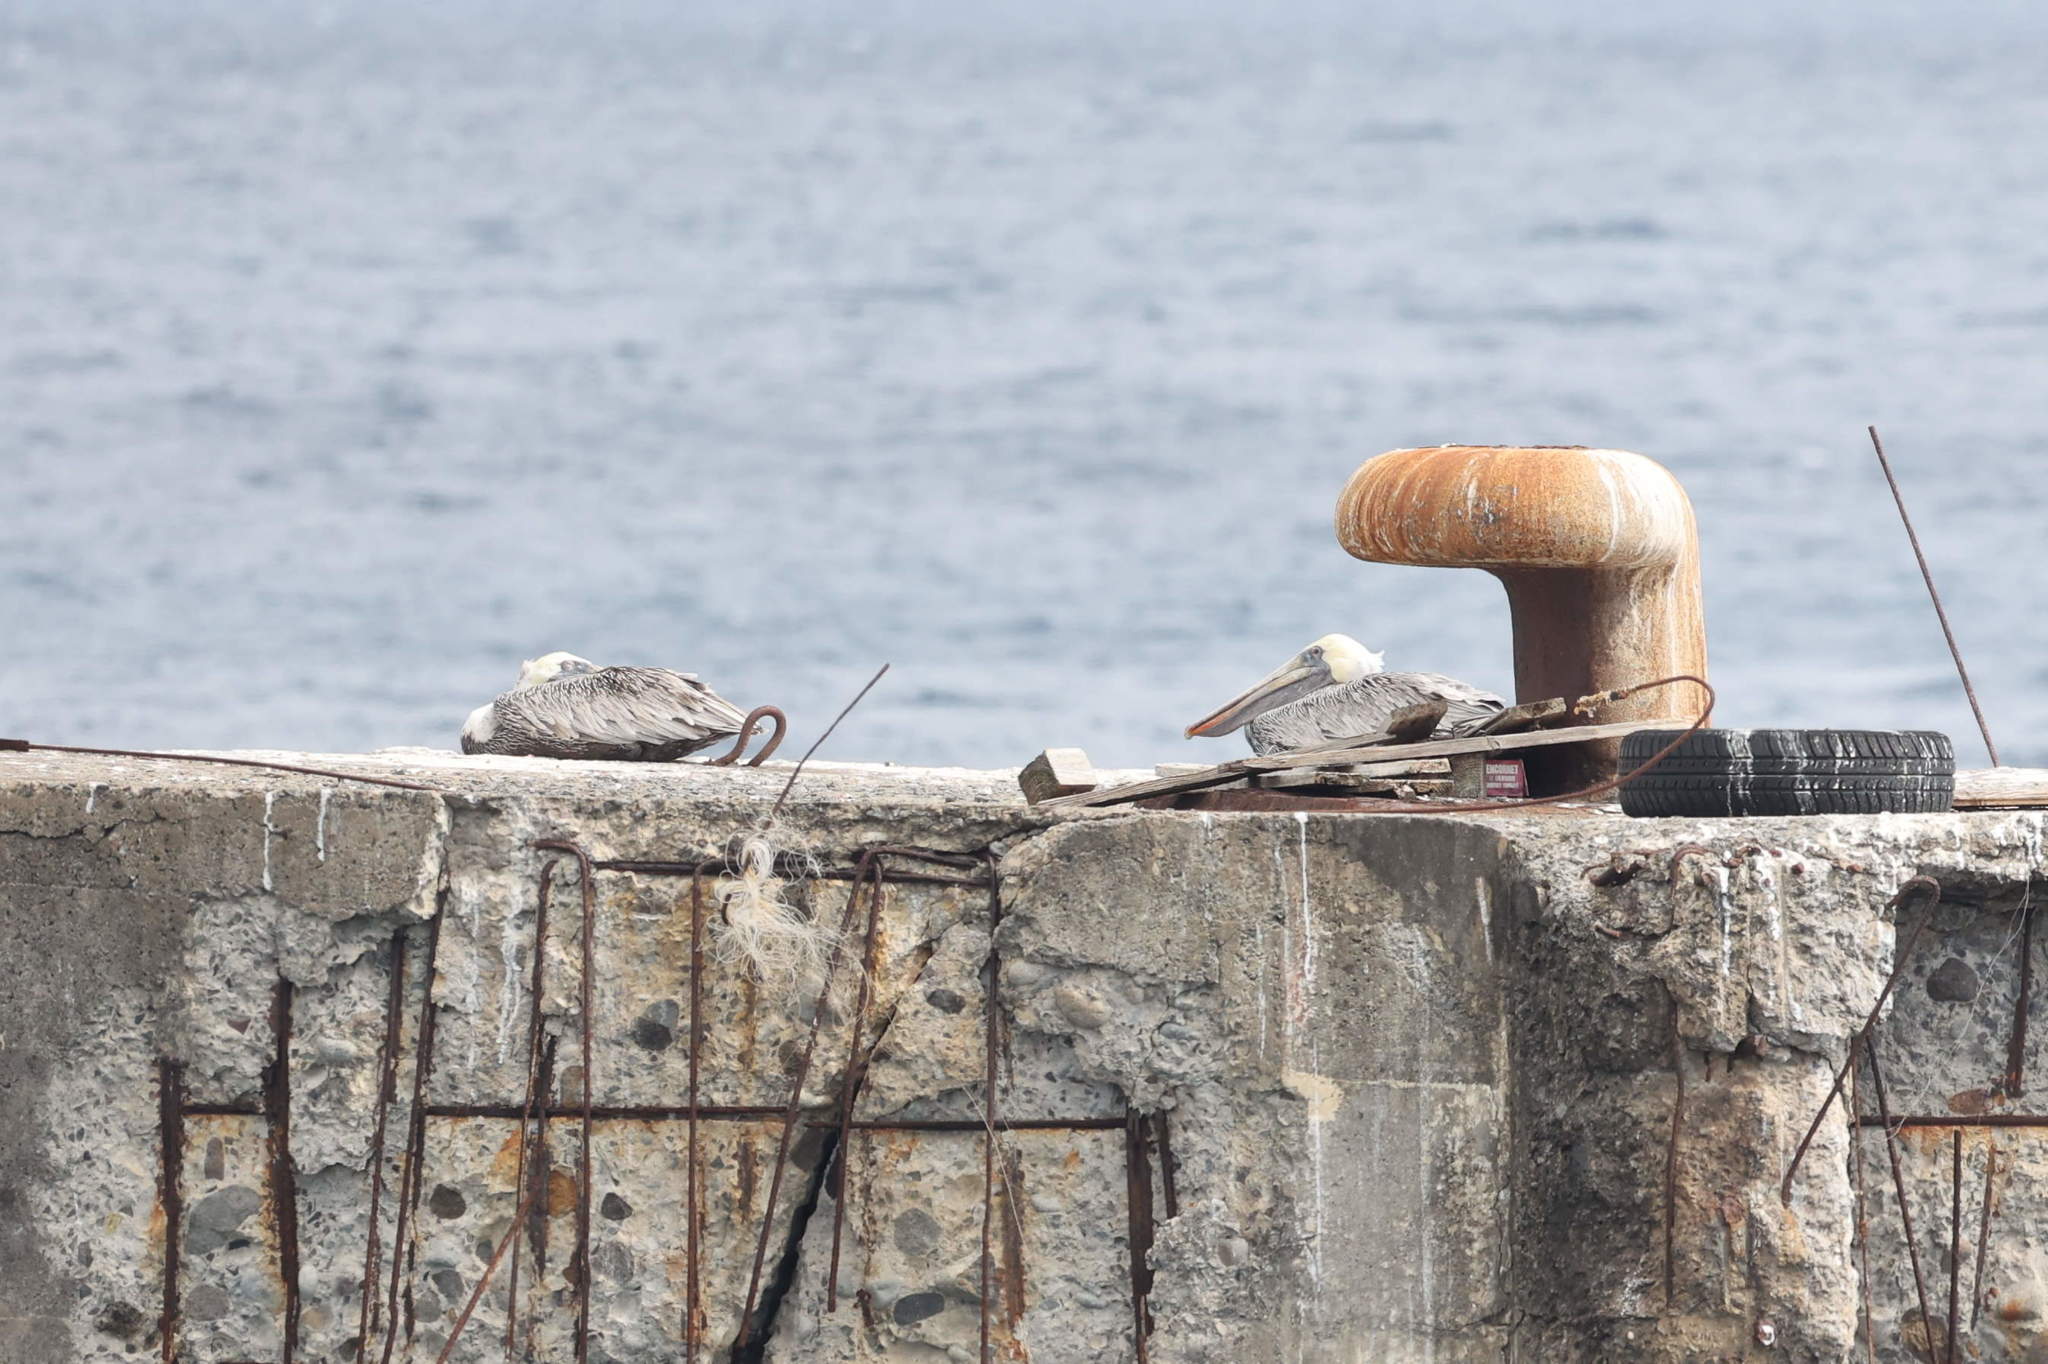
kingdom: Animalia
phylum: Chordata
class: Aves
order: Pelecaniformes
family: Pelecanidae
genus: Pelecanus
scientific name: Pelecanus occidentalis
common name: Brown pelican
